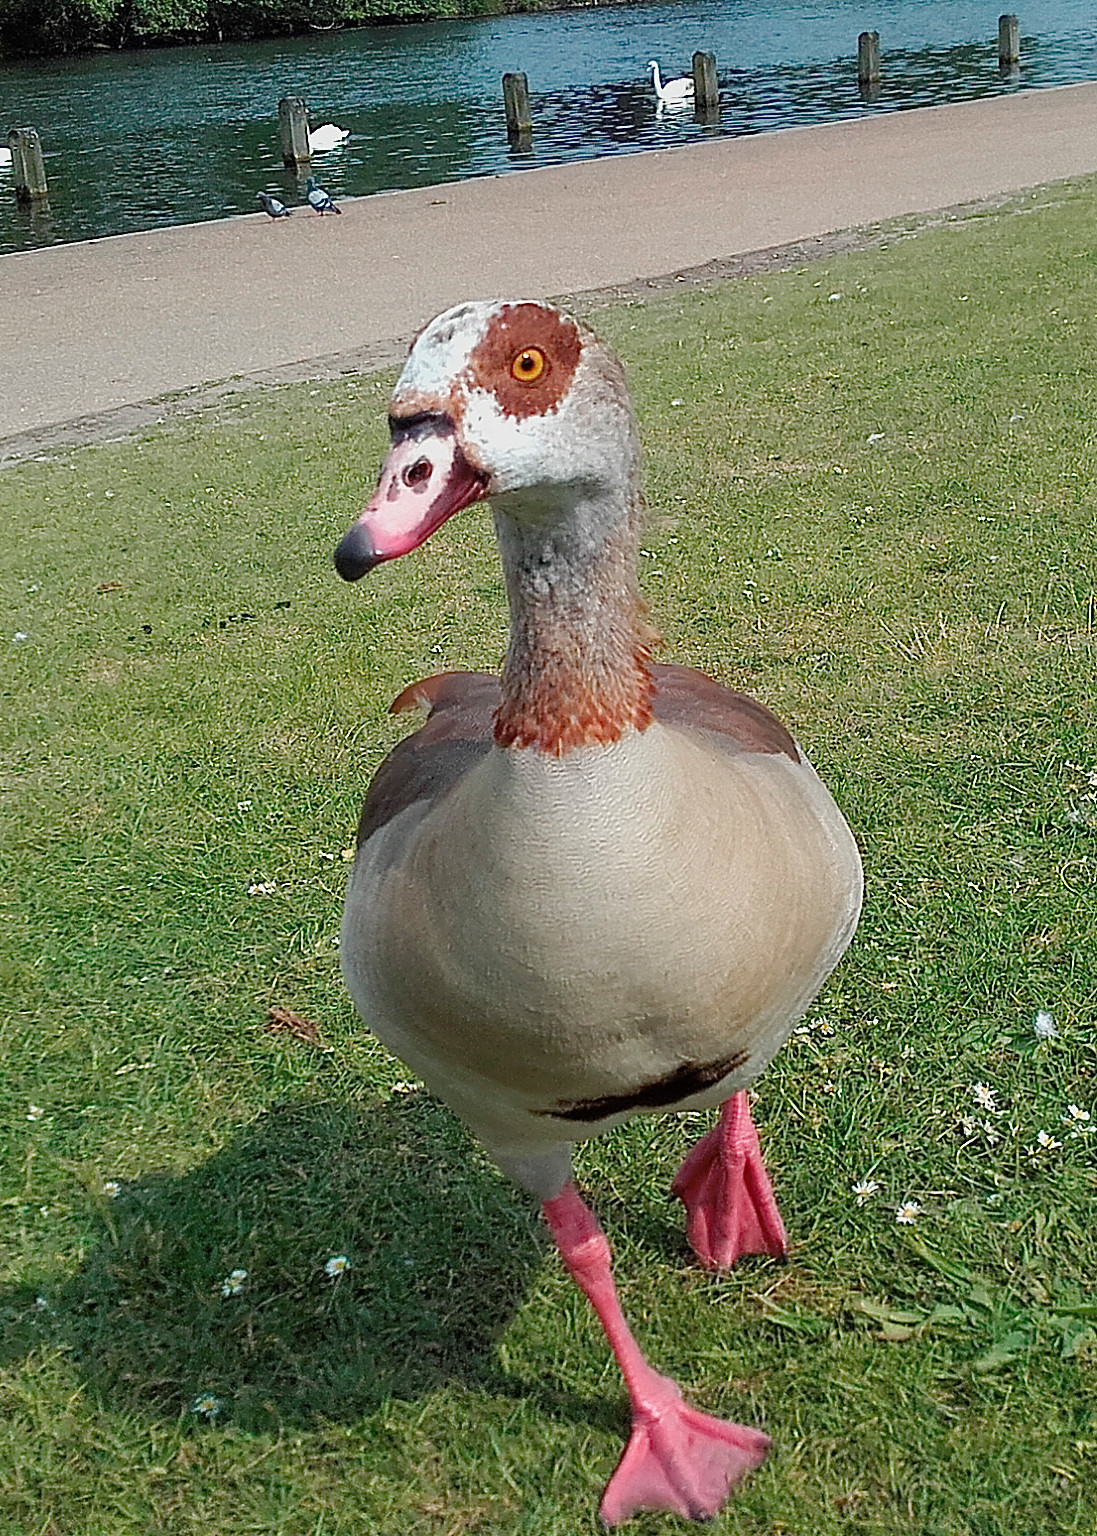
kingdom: Animalia
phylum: Chordata
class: Aves
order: Anseriformes
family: Anatidae
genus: Alopochen
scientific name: Alopochen aegyptiaca
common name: Egyptian goose
